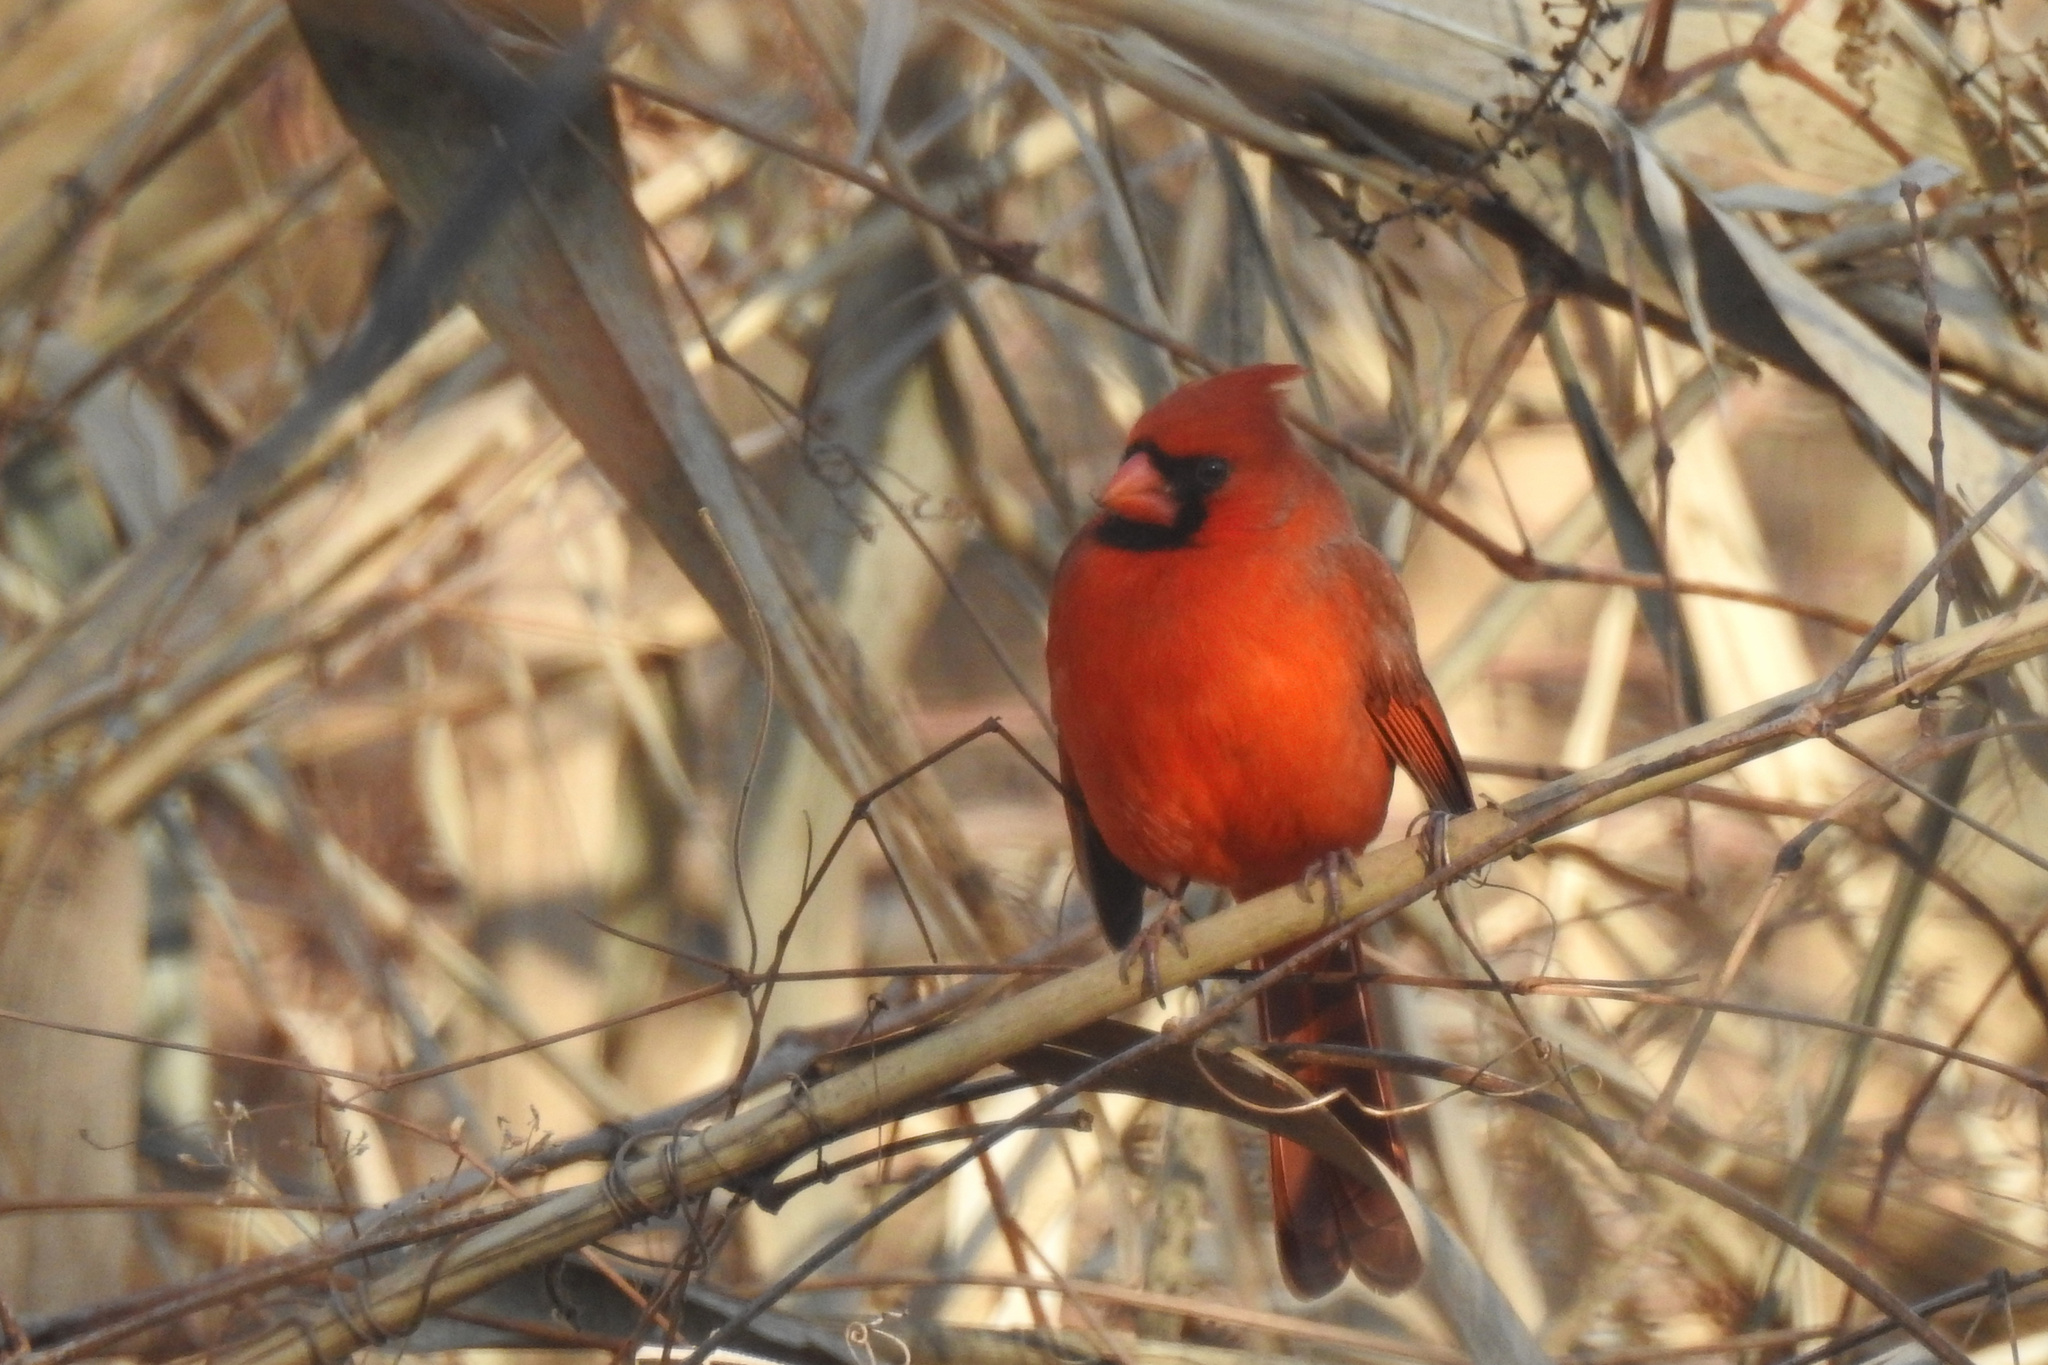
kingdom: Animalia
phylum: Chordata
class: Aves
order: Passeriformes
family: Cardinalidae
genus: Cardinalis
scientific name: Cardinalis cardinalis
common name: Northern cardinal
